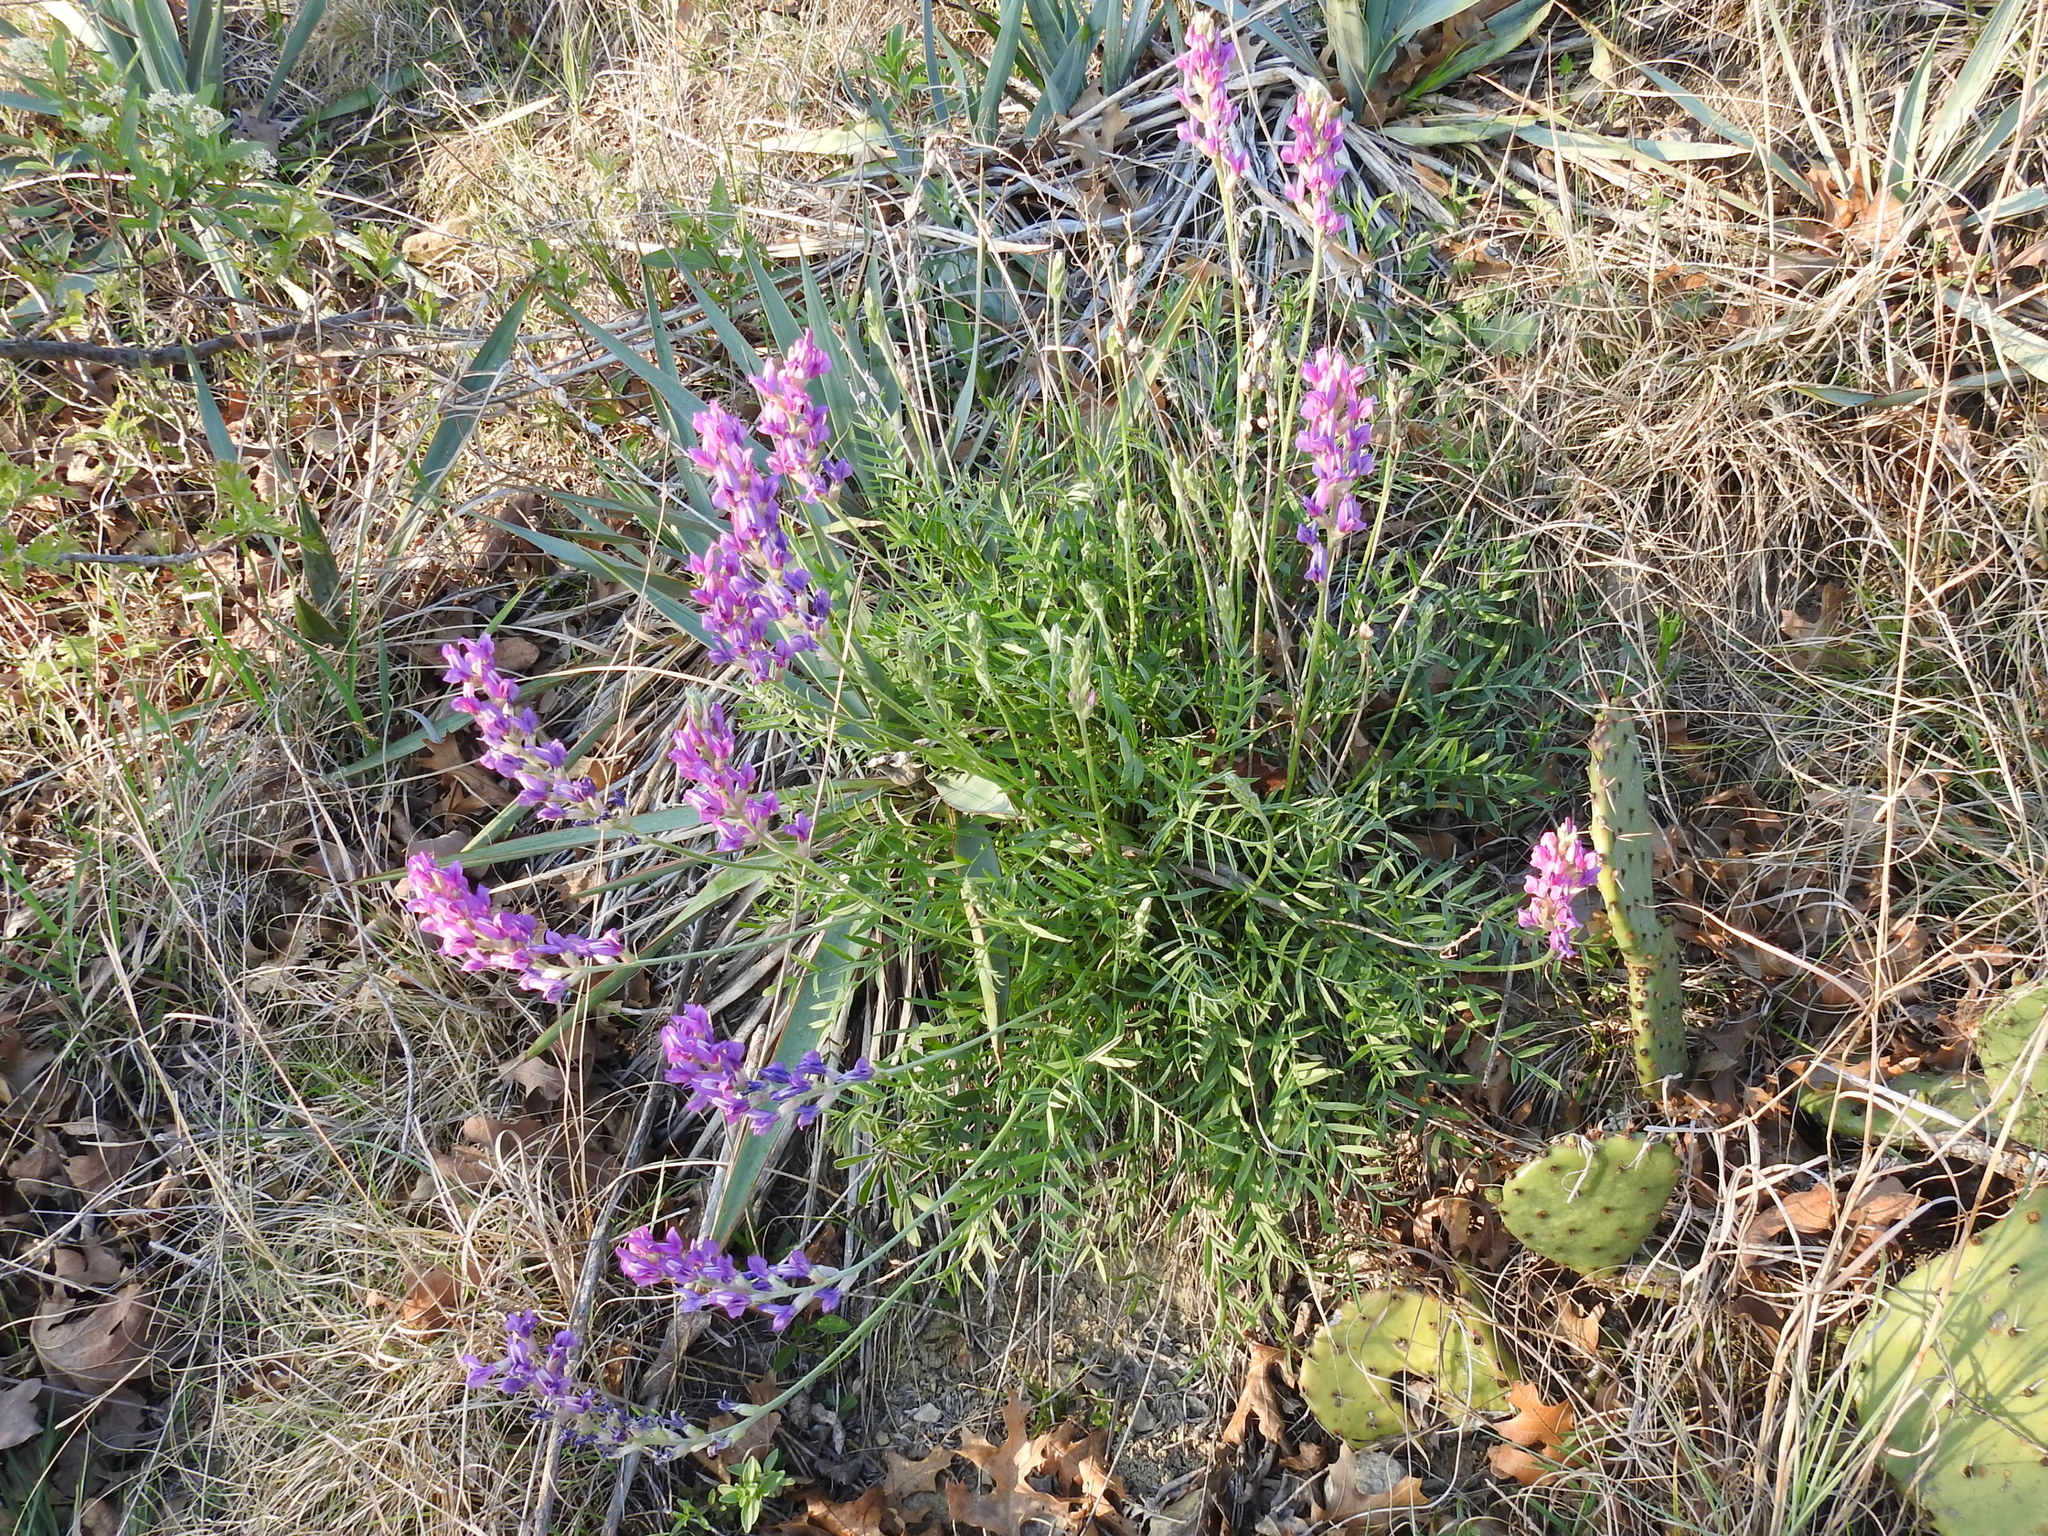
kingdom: Plantae
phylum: Tracheophyta
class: Magnoliopsida
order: Fabales
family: Fabaceae
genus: Oxytropis
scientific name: Oxytropis lambertii
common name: Purple locoweed
